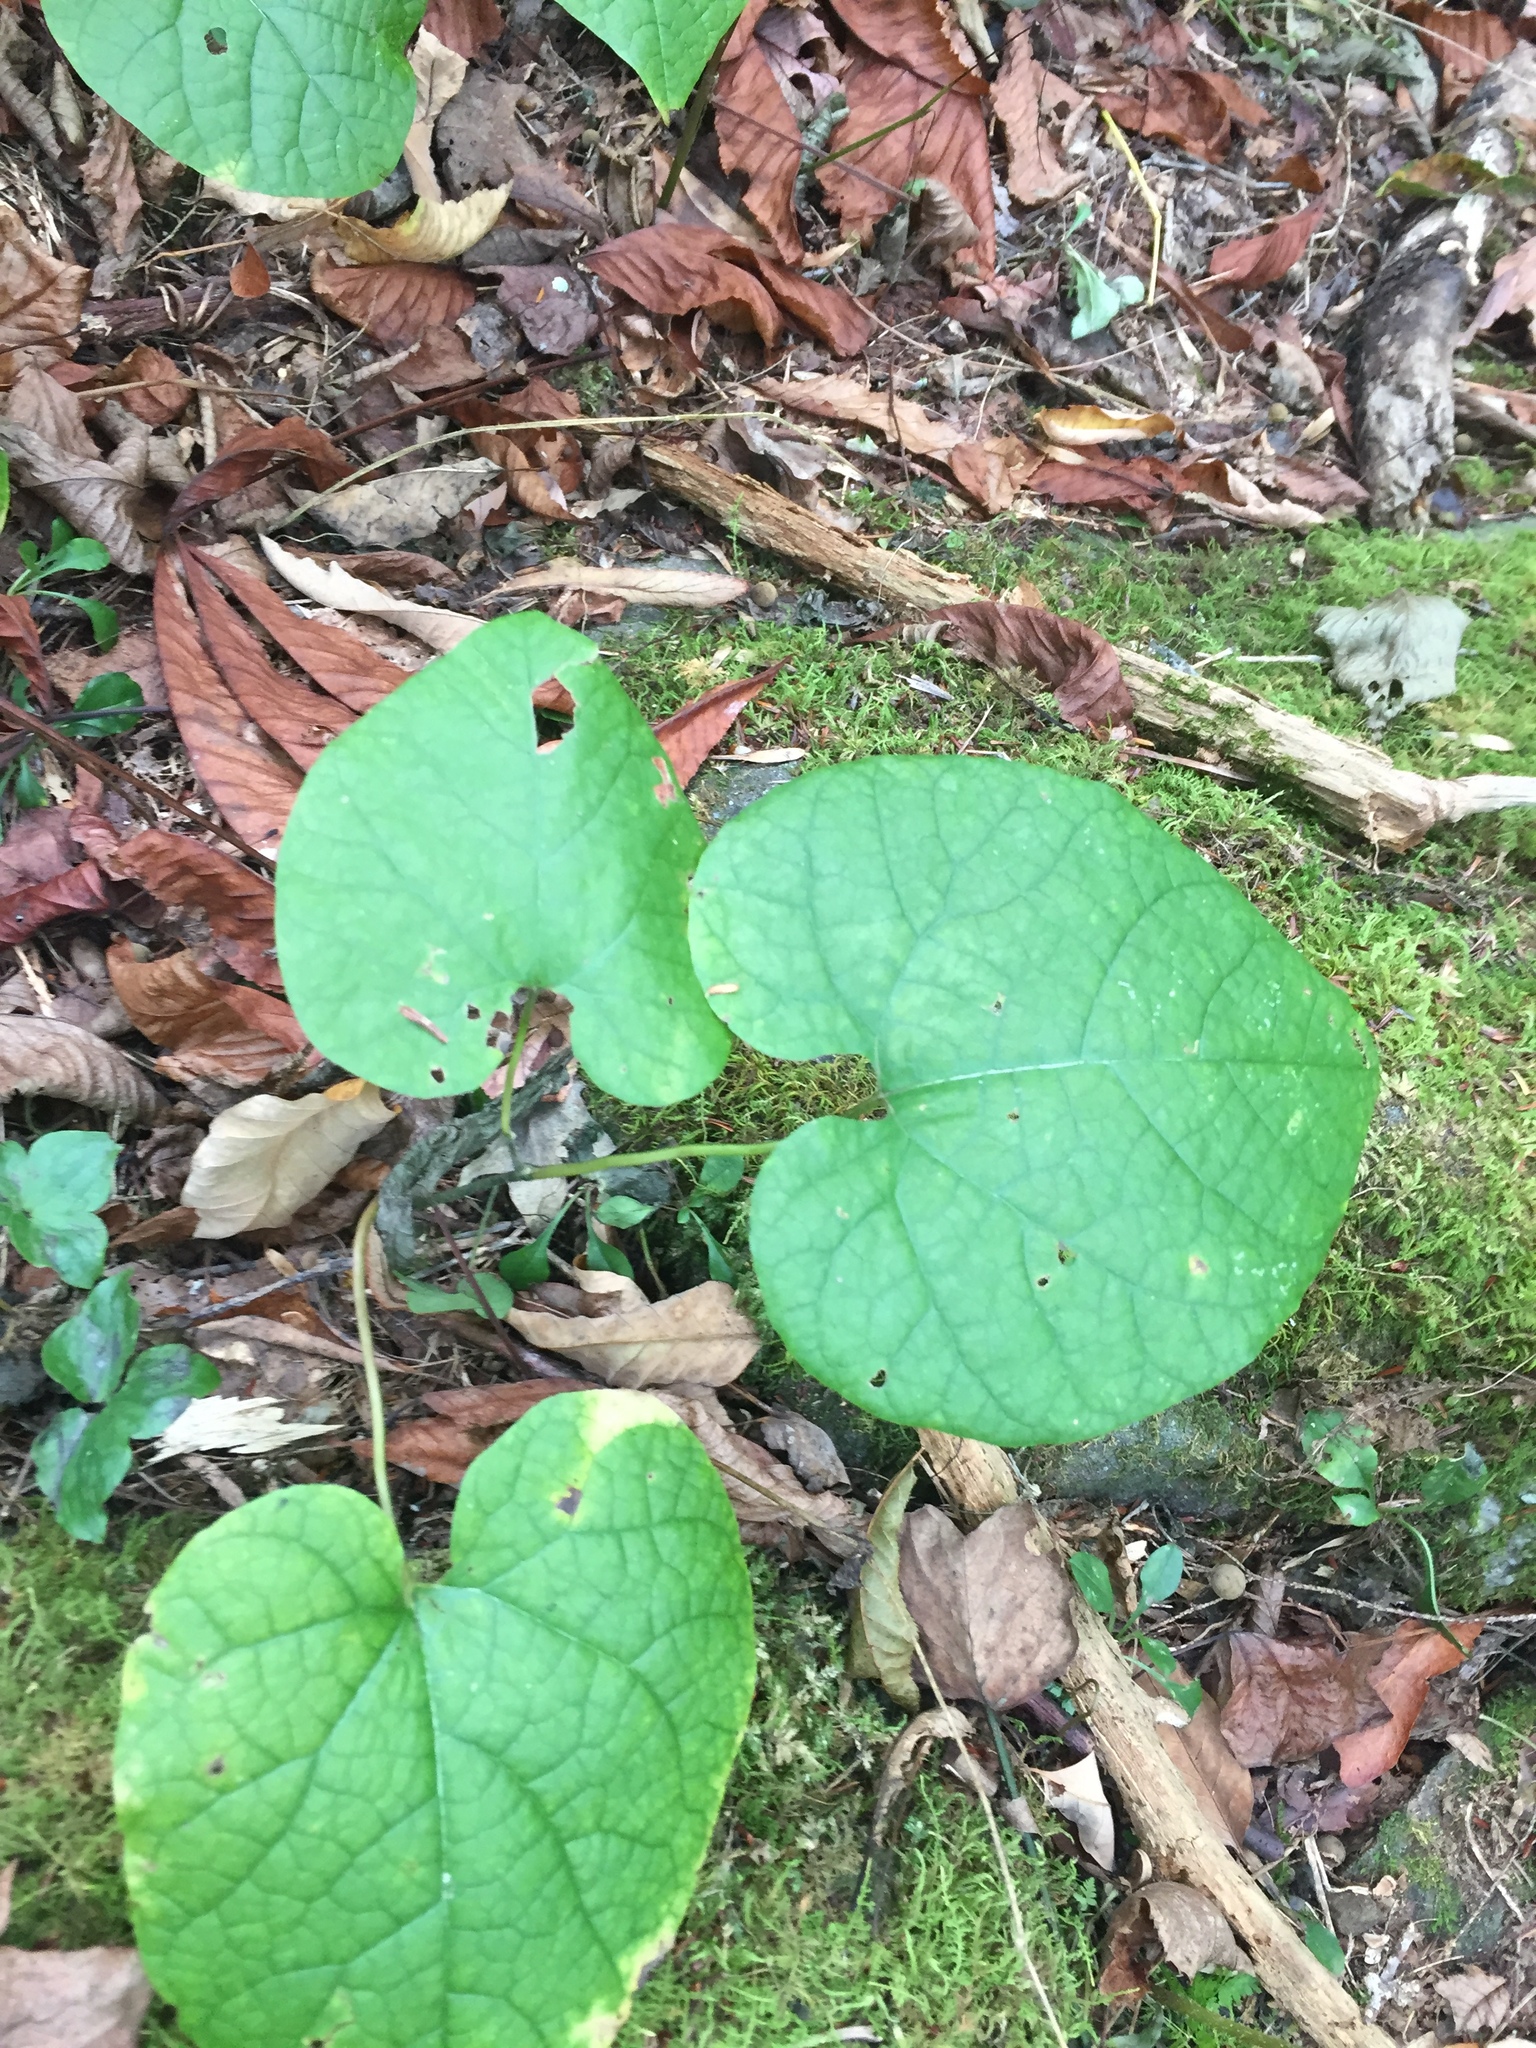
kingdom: Plantae
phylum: Tracheophyta
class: Magnoliopsida
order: Piperales
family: Aristolochiaceae
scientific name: Aristolochiaceae
